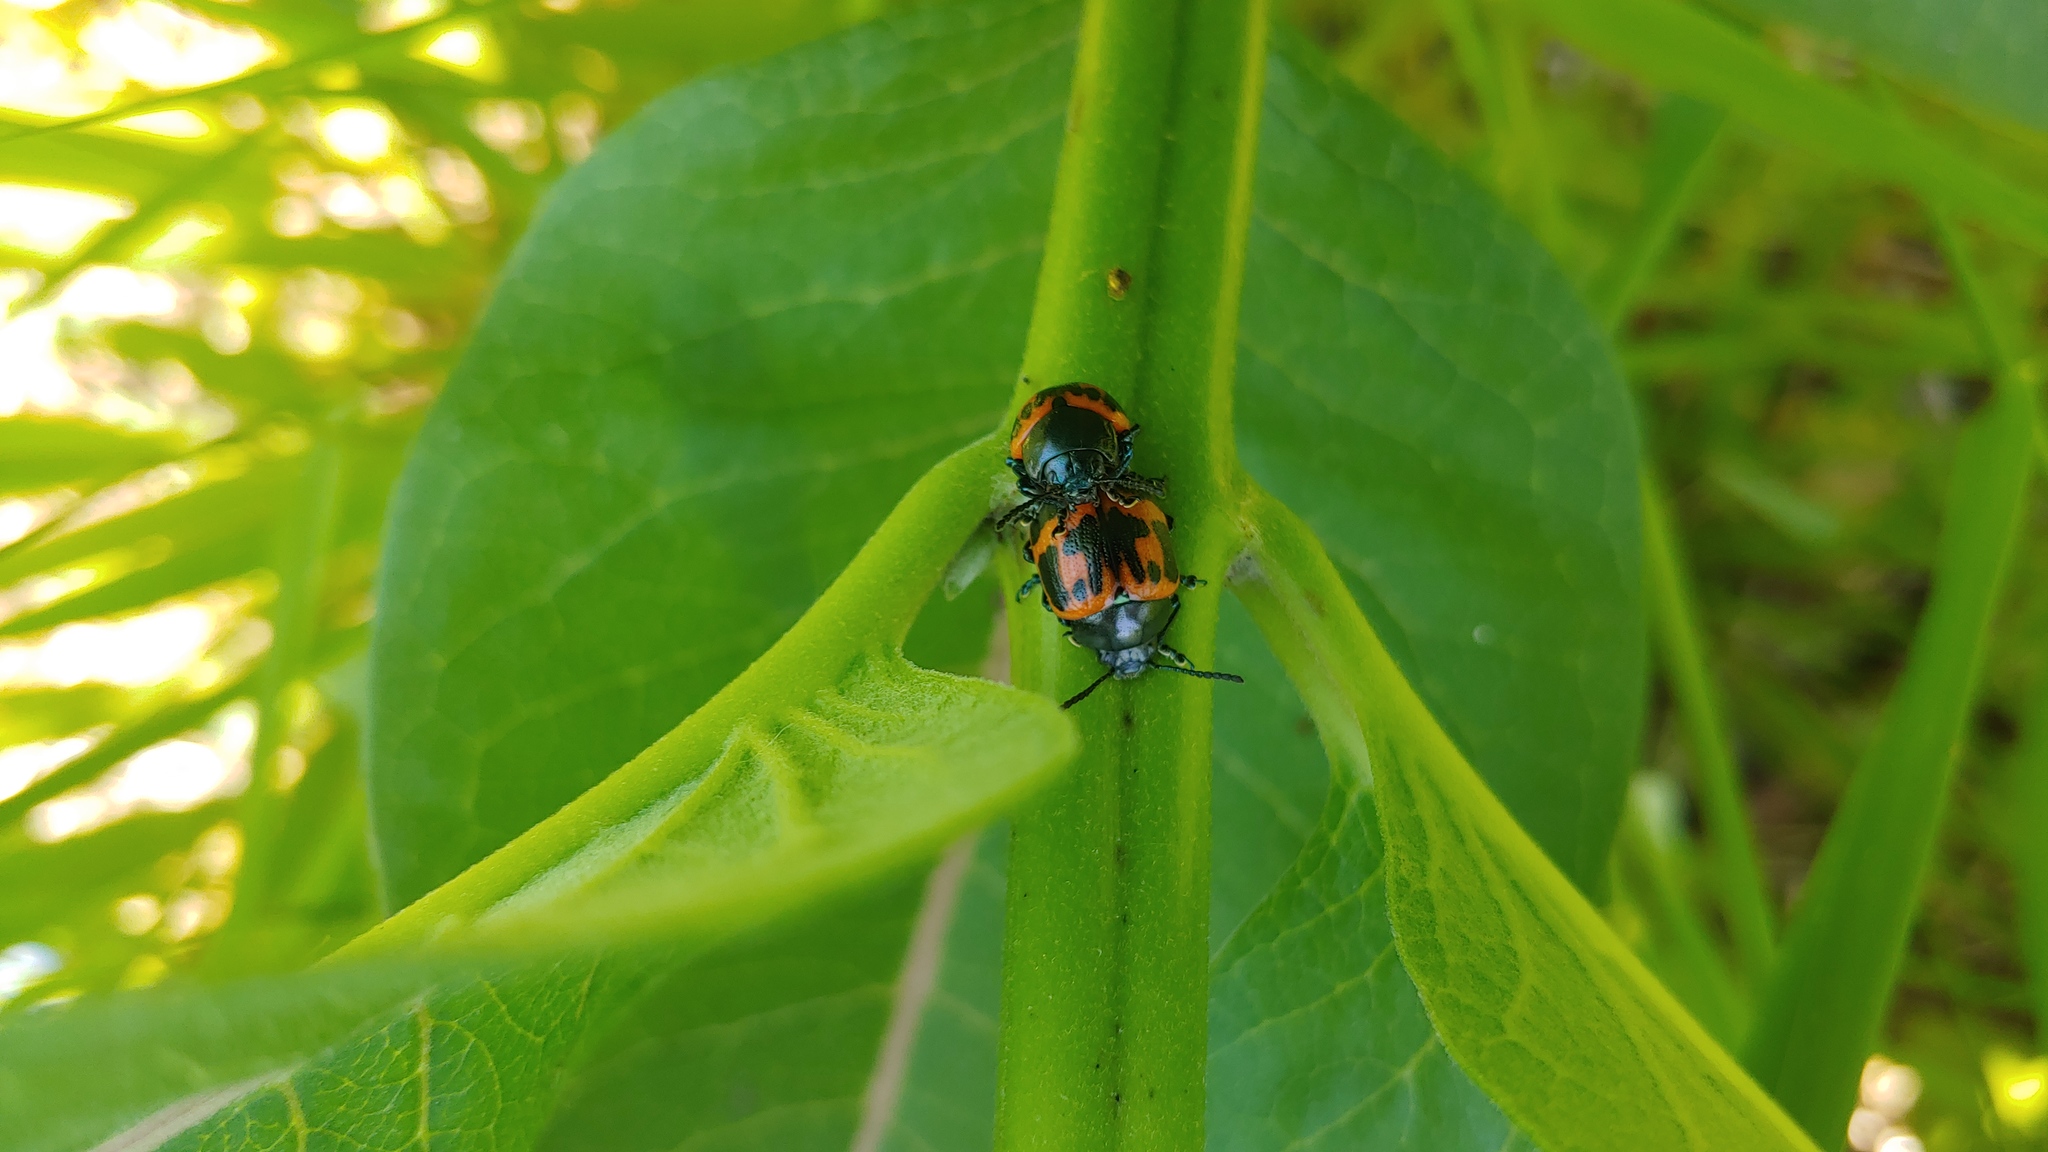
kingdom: Animalia
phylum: Arthropoda
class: Insecta
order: Coleoptera
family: Chrysomelidae
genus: Labidomera
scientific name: Labidomera clivicollis
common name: Swamp milkweed leaf beetle
